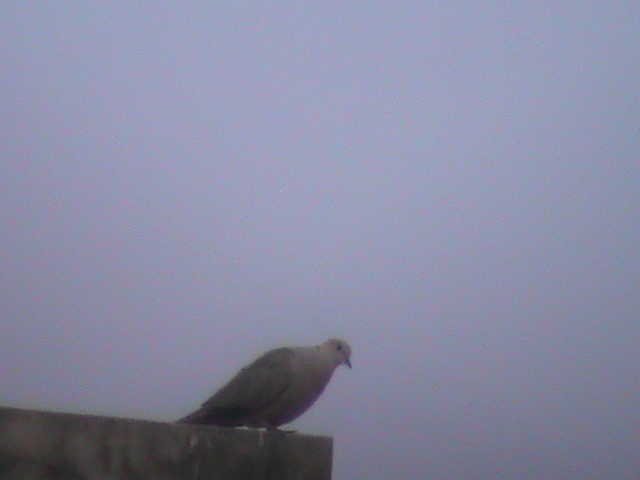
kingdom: Animalia
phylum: Chordata
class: Aves
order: Columbiformes
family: Columbidae
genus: Streptopelia
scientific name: Streptopelia decaocto
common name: Eurasian collared dove
